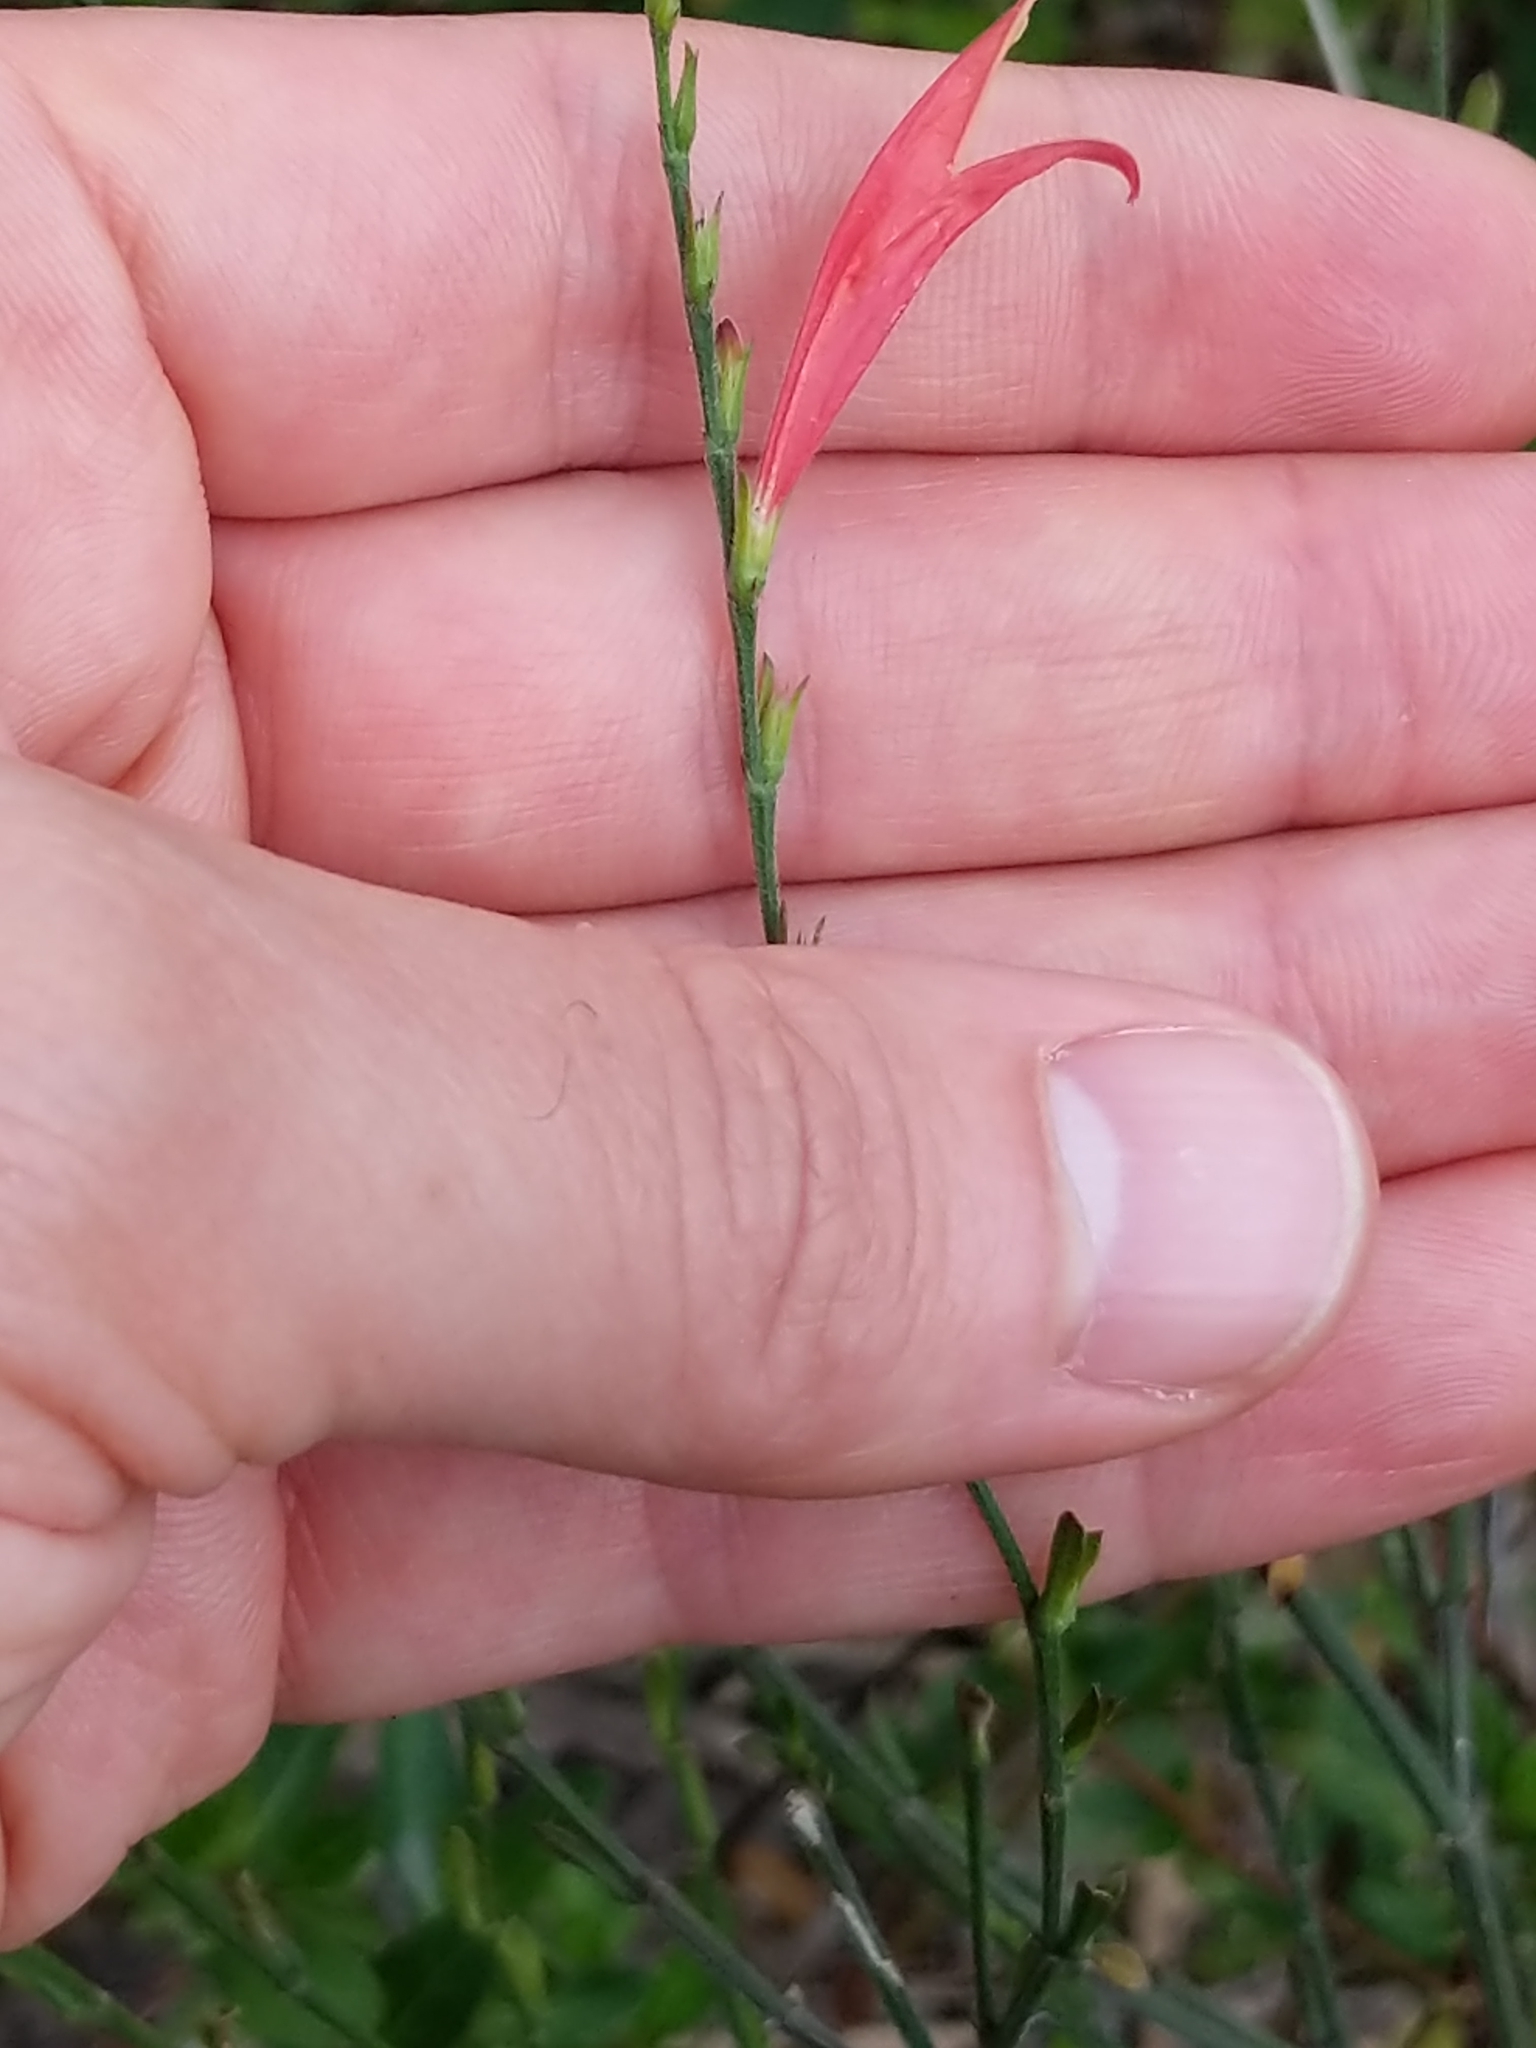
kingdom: Plantae
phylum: Tracheophyta
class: Magnoliopsida
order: Lamiales
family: Acanthaceae
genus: Dicliptera
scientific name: Dicliptera sexangularis
